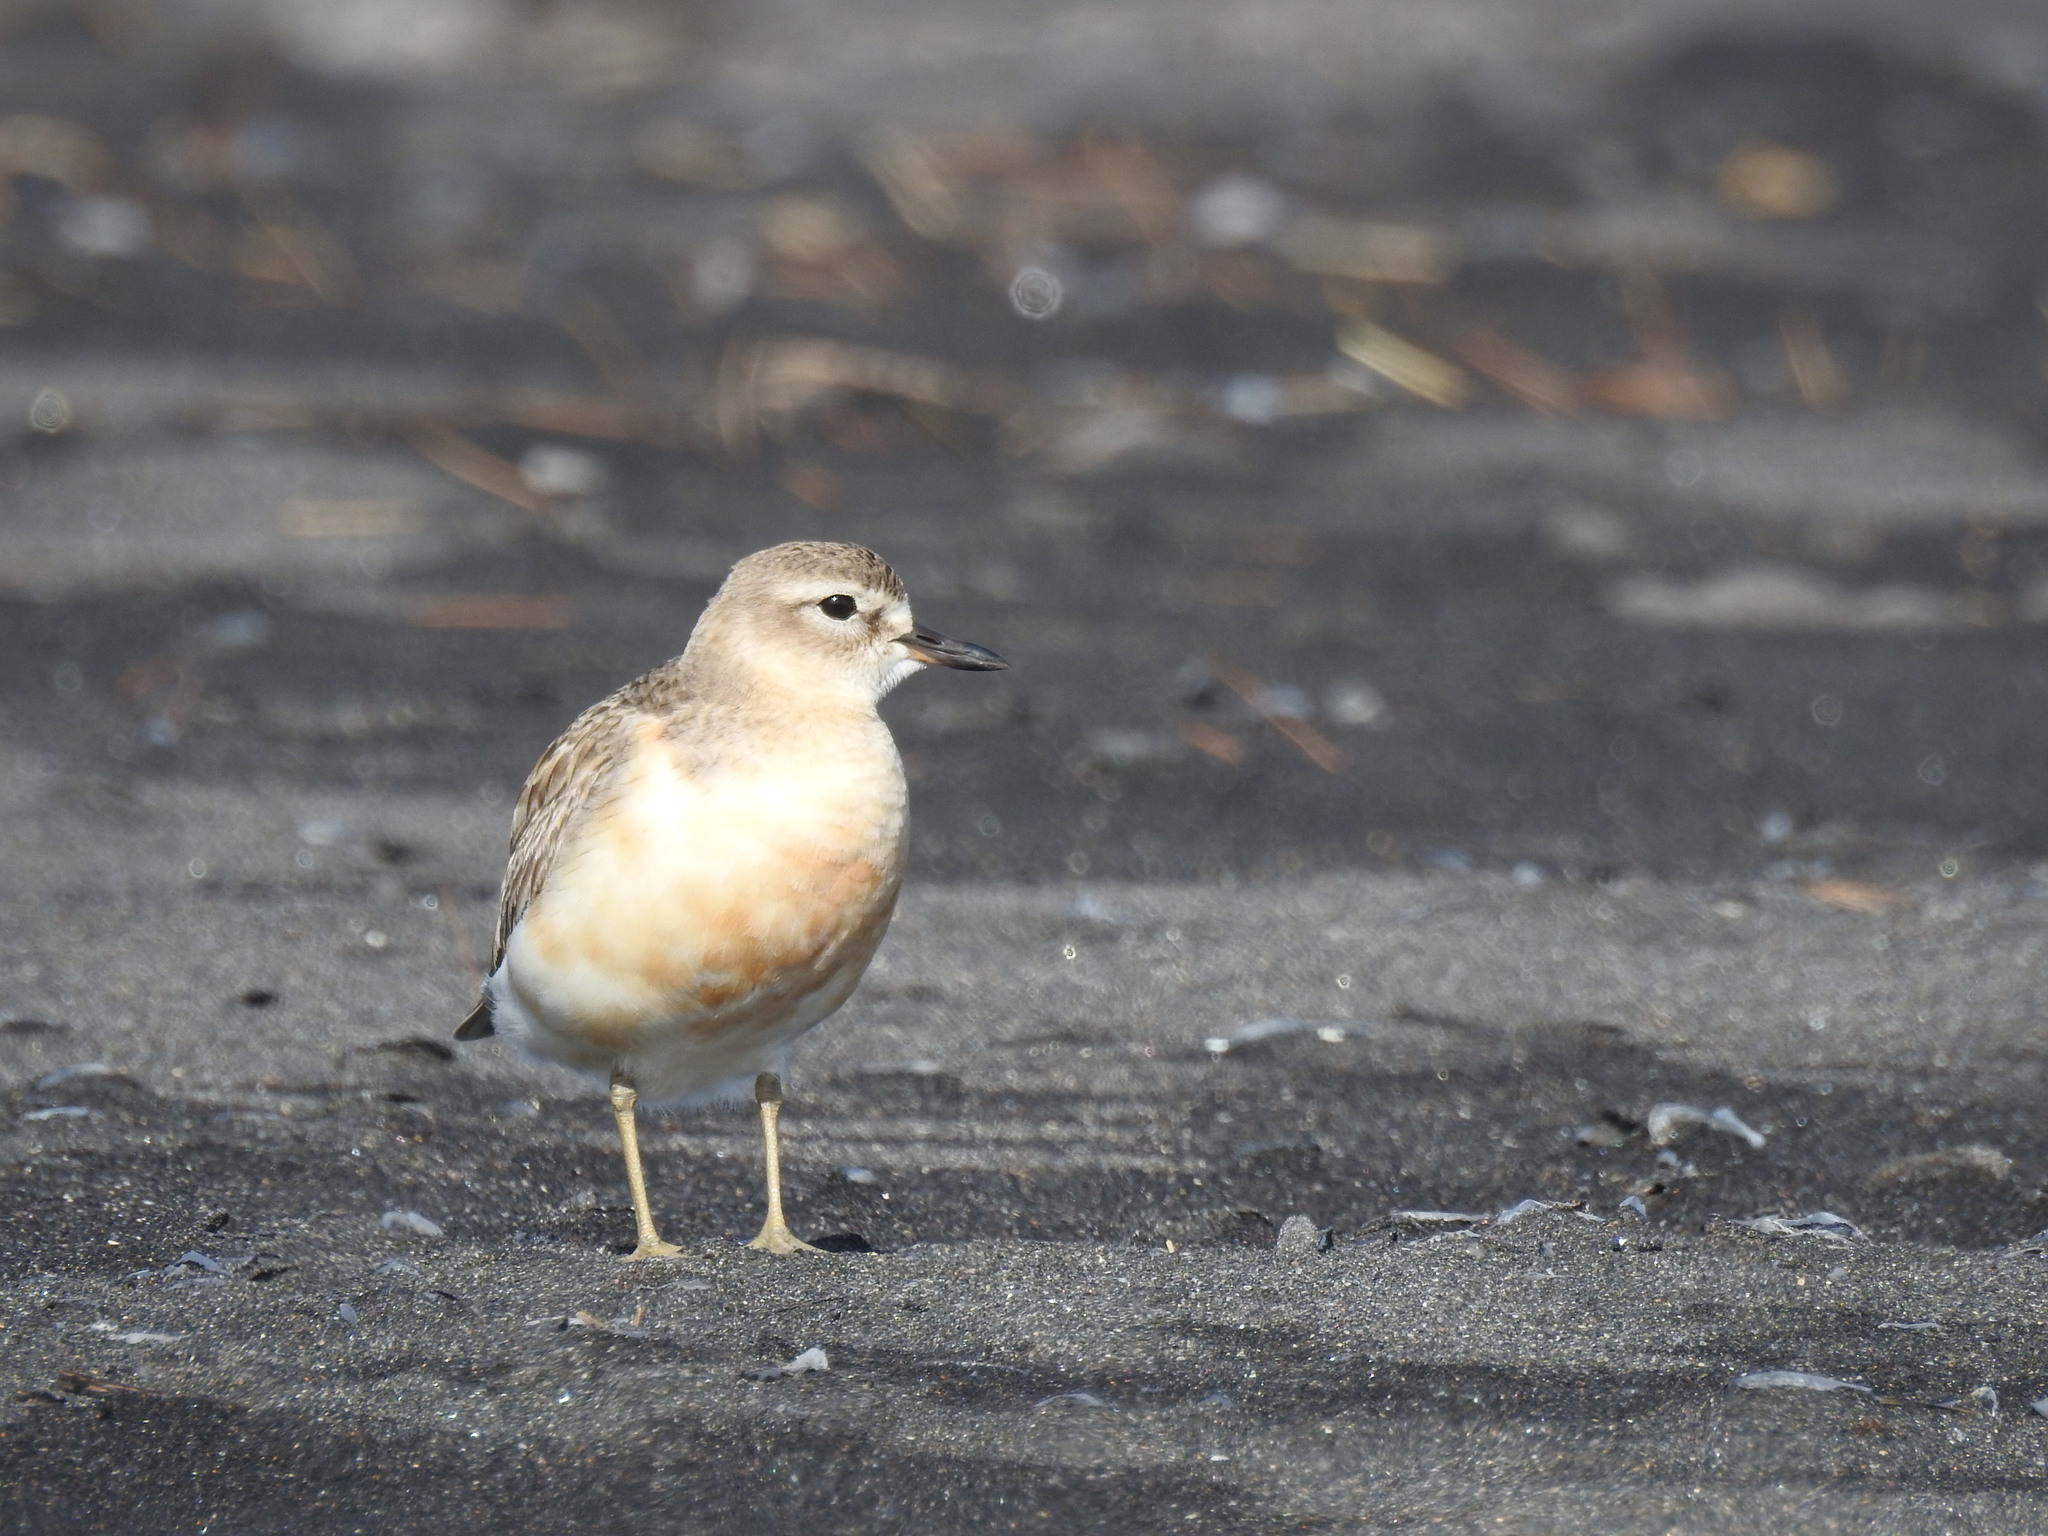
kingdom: Animalia
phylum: Chordata
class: Aves
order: Charadriiformes
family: Charadriidae
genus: Anarhynchus
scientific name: Anarhynchus
